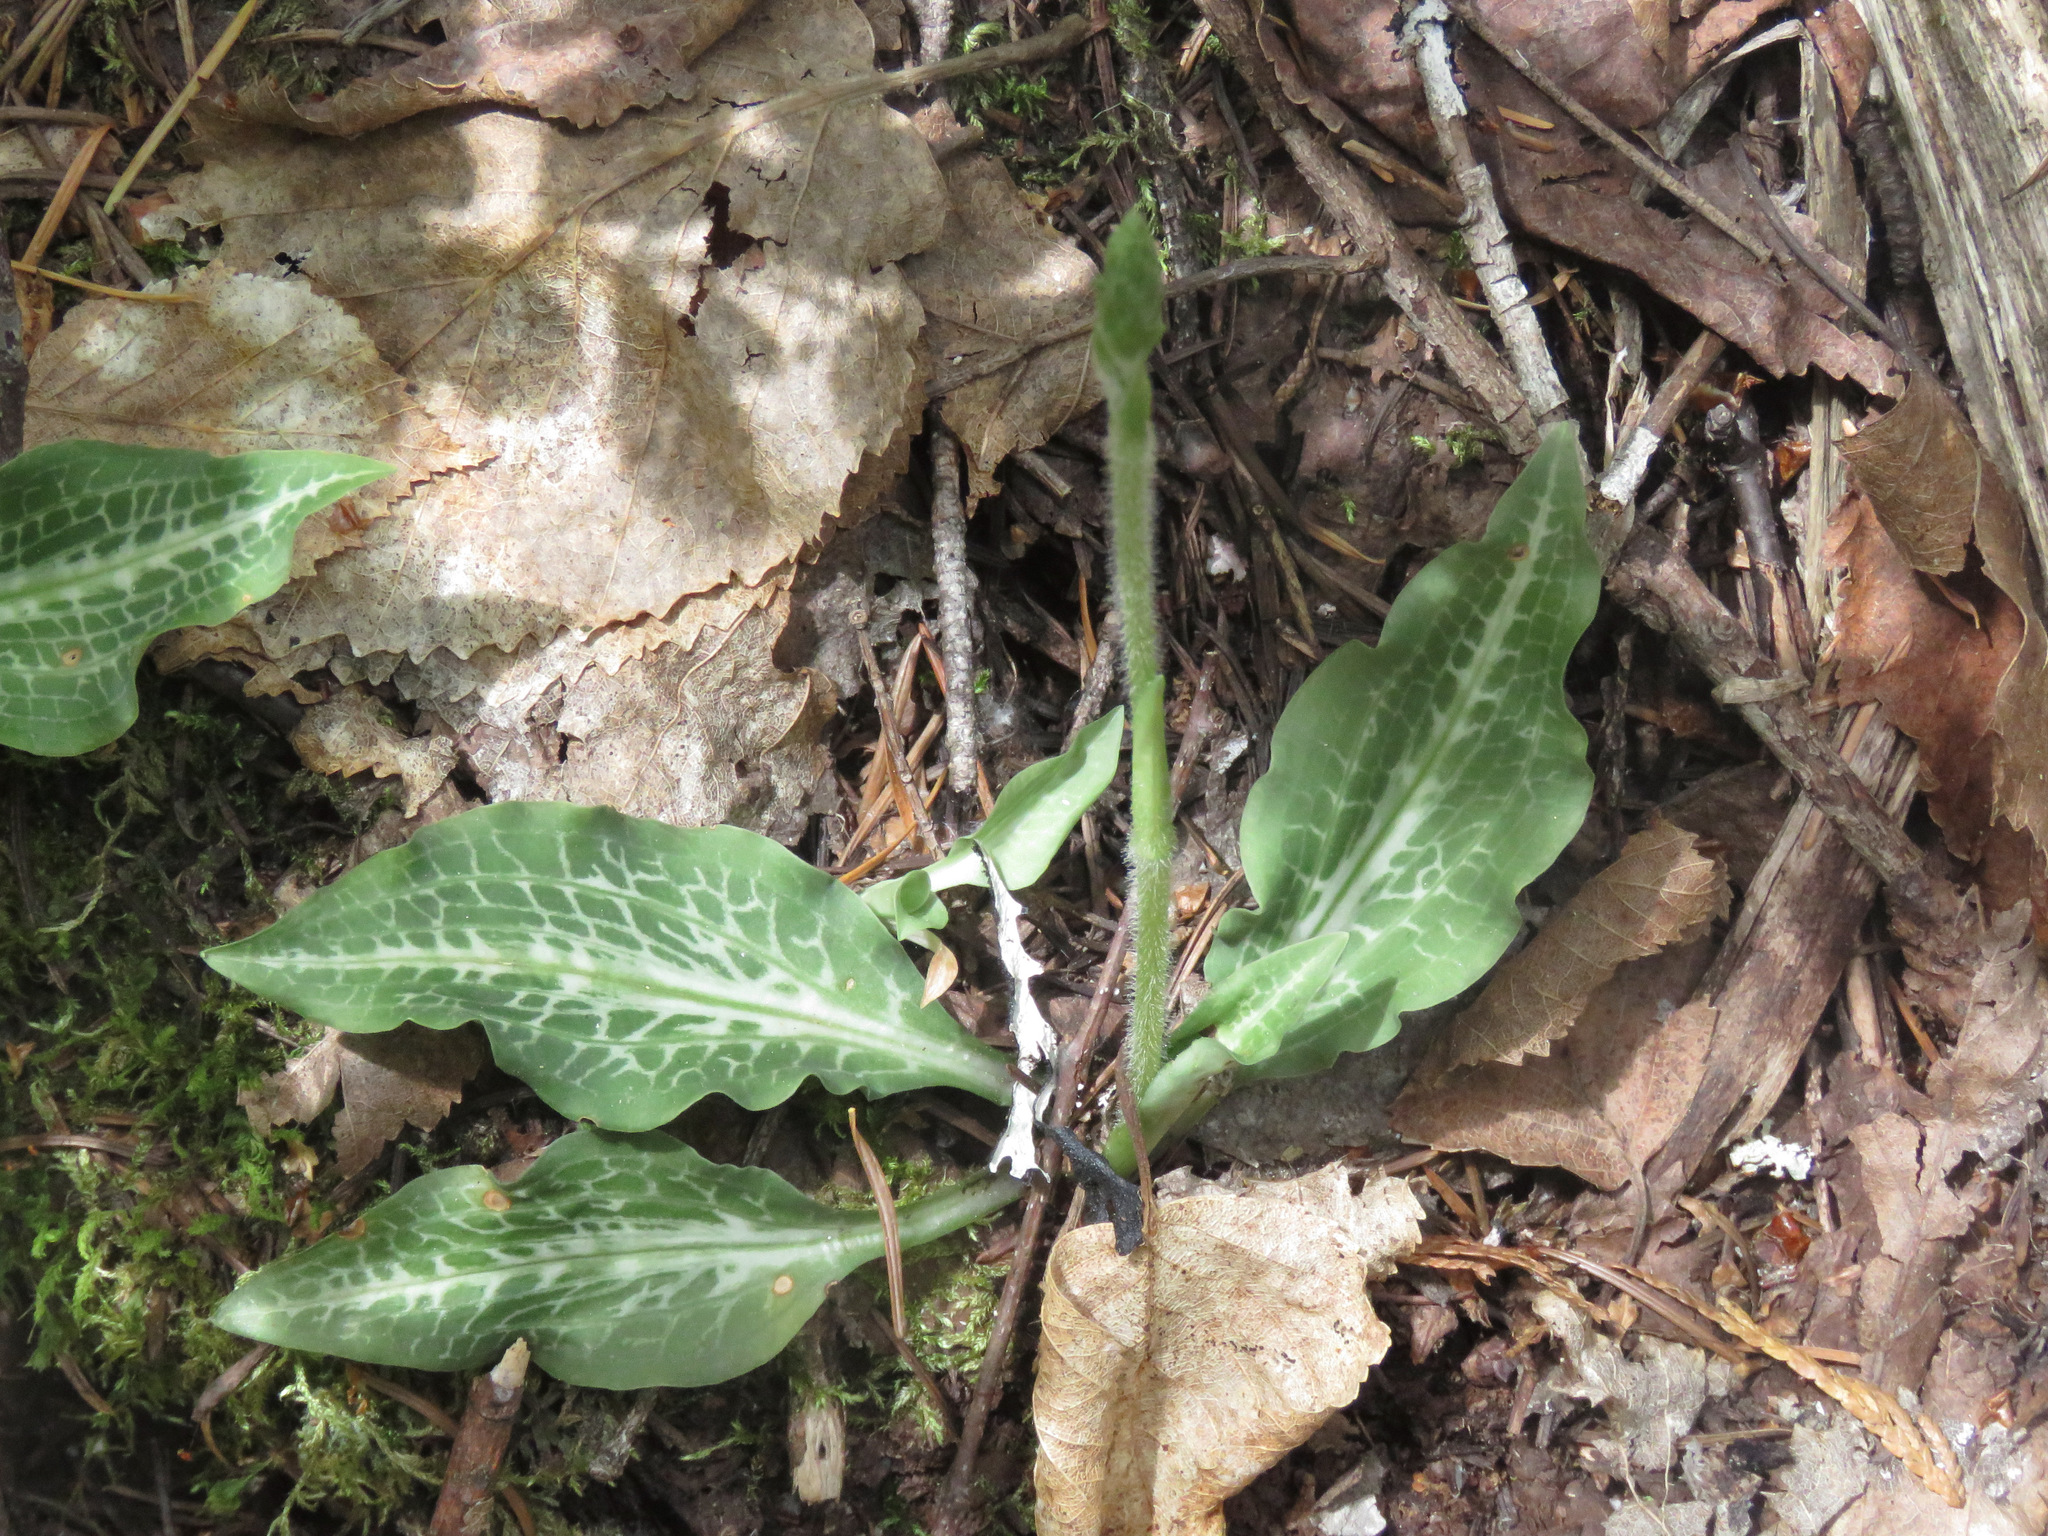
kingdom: Plantae
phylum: Tracheophyta
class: Liliopsida
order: Asparagales
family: Orchidaceae
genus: Goodyera
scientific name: Goodyera oblongifolia
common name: Giant rattlesnake-plantain
